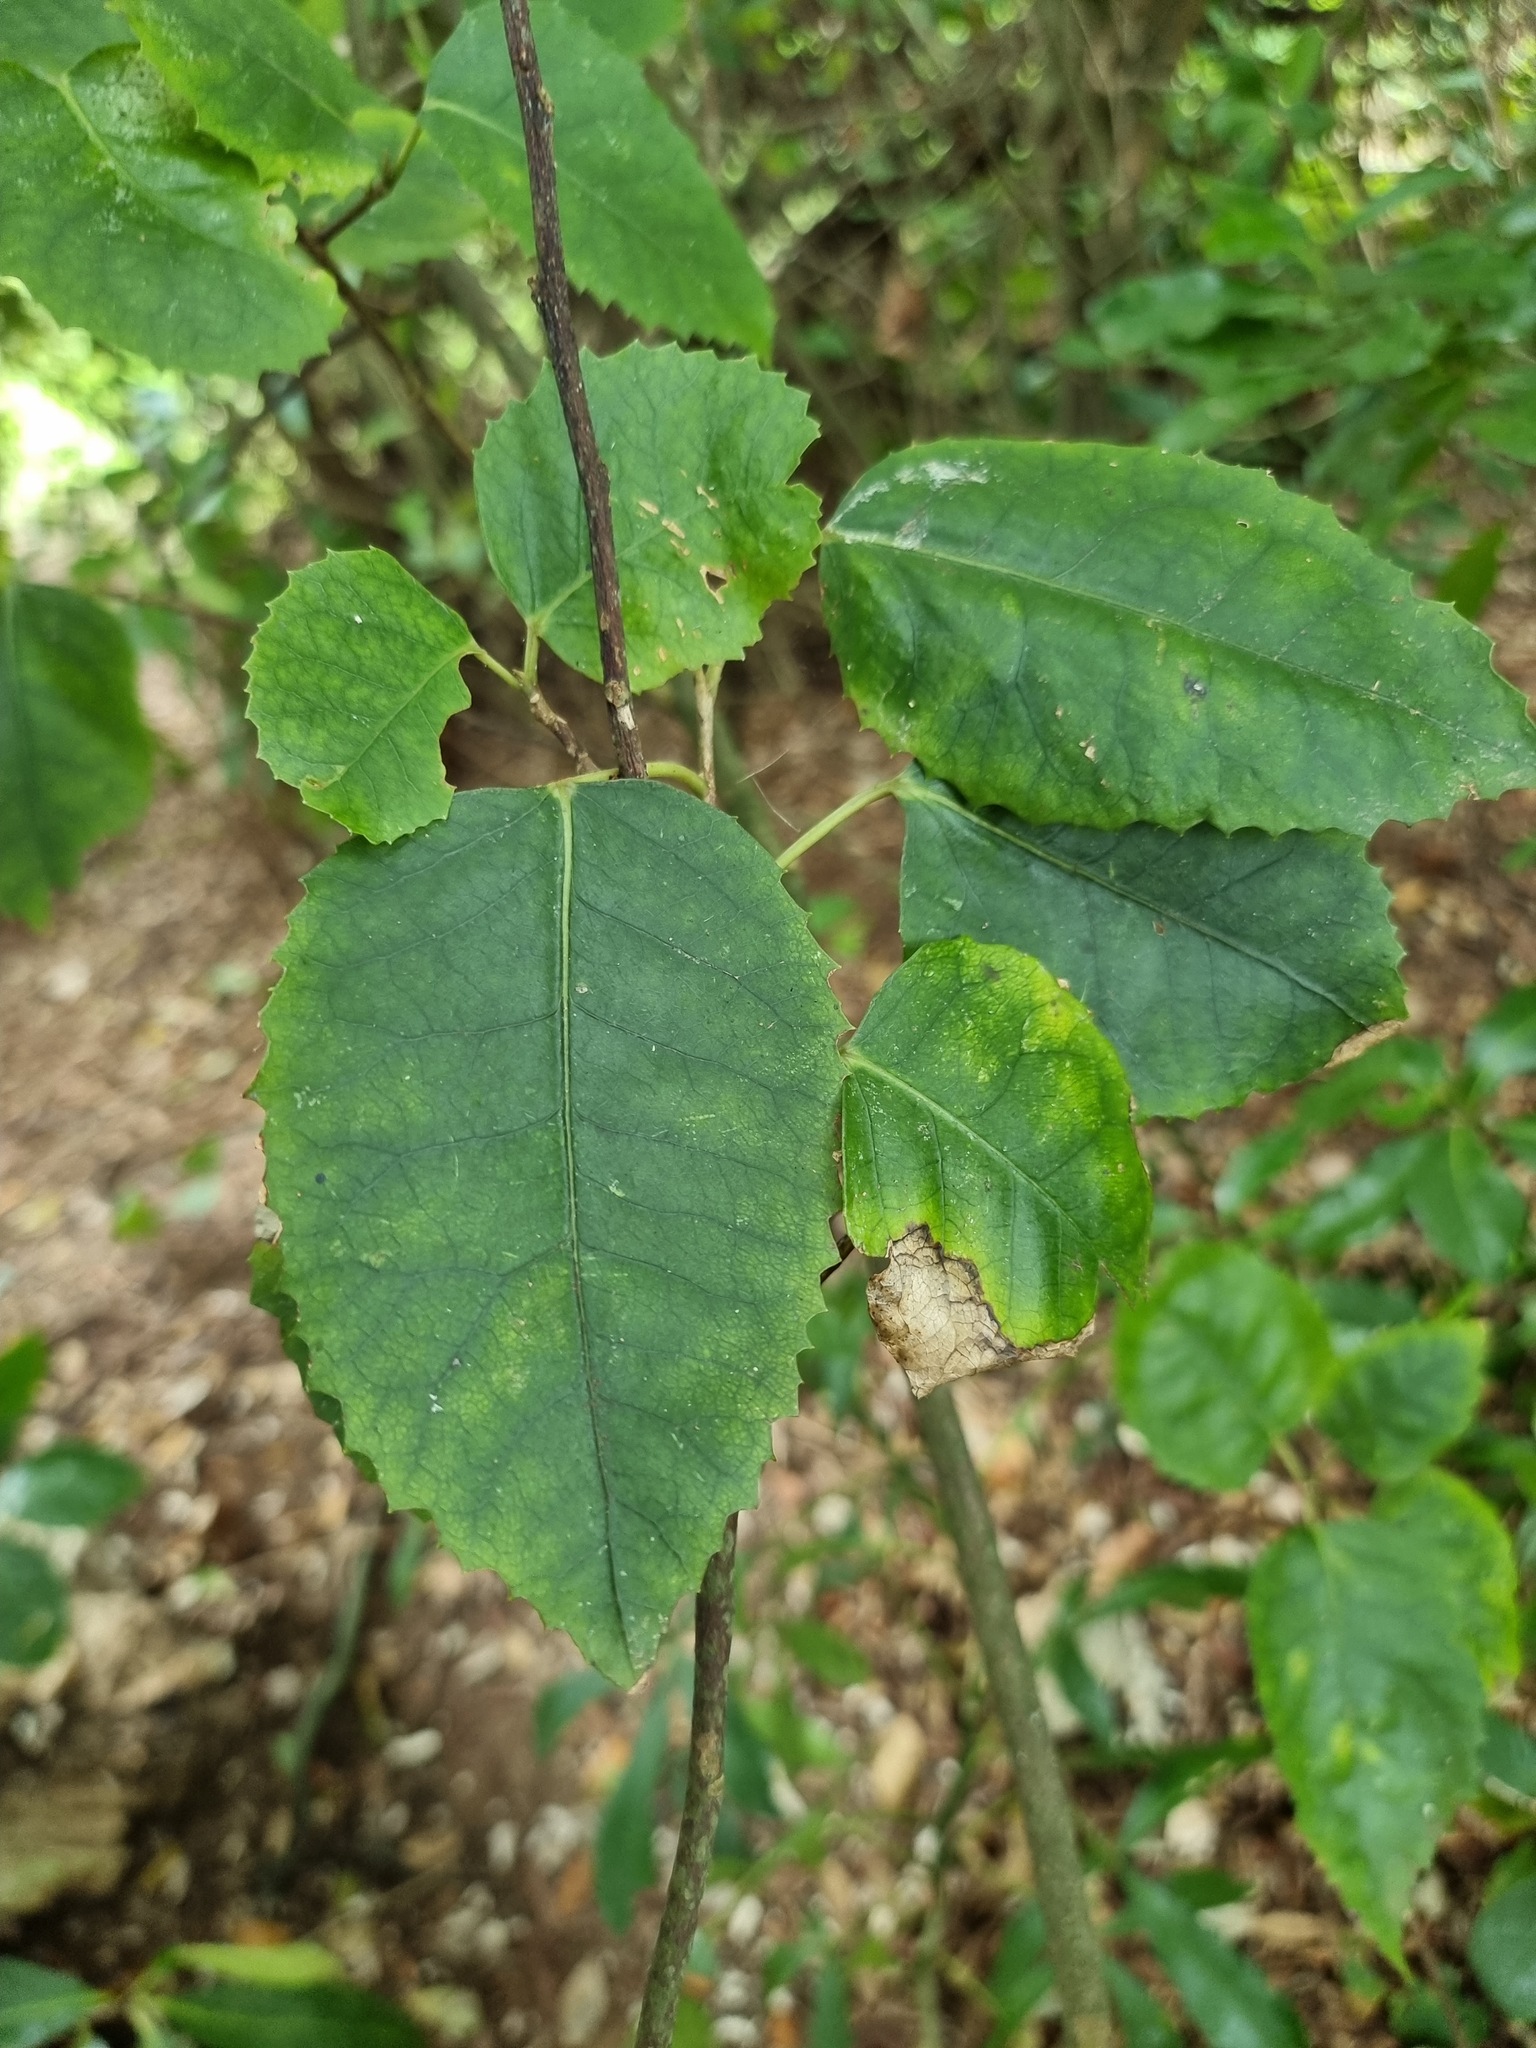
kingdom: Plantae
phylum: Tracheophyta
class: Magnoliopsida
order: Malvales
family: Malvaceae
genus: Hoheria
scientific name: Hoheria populnea
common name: Lacebark
